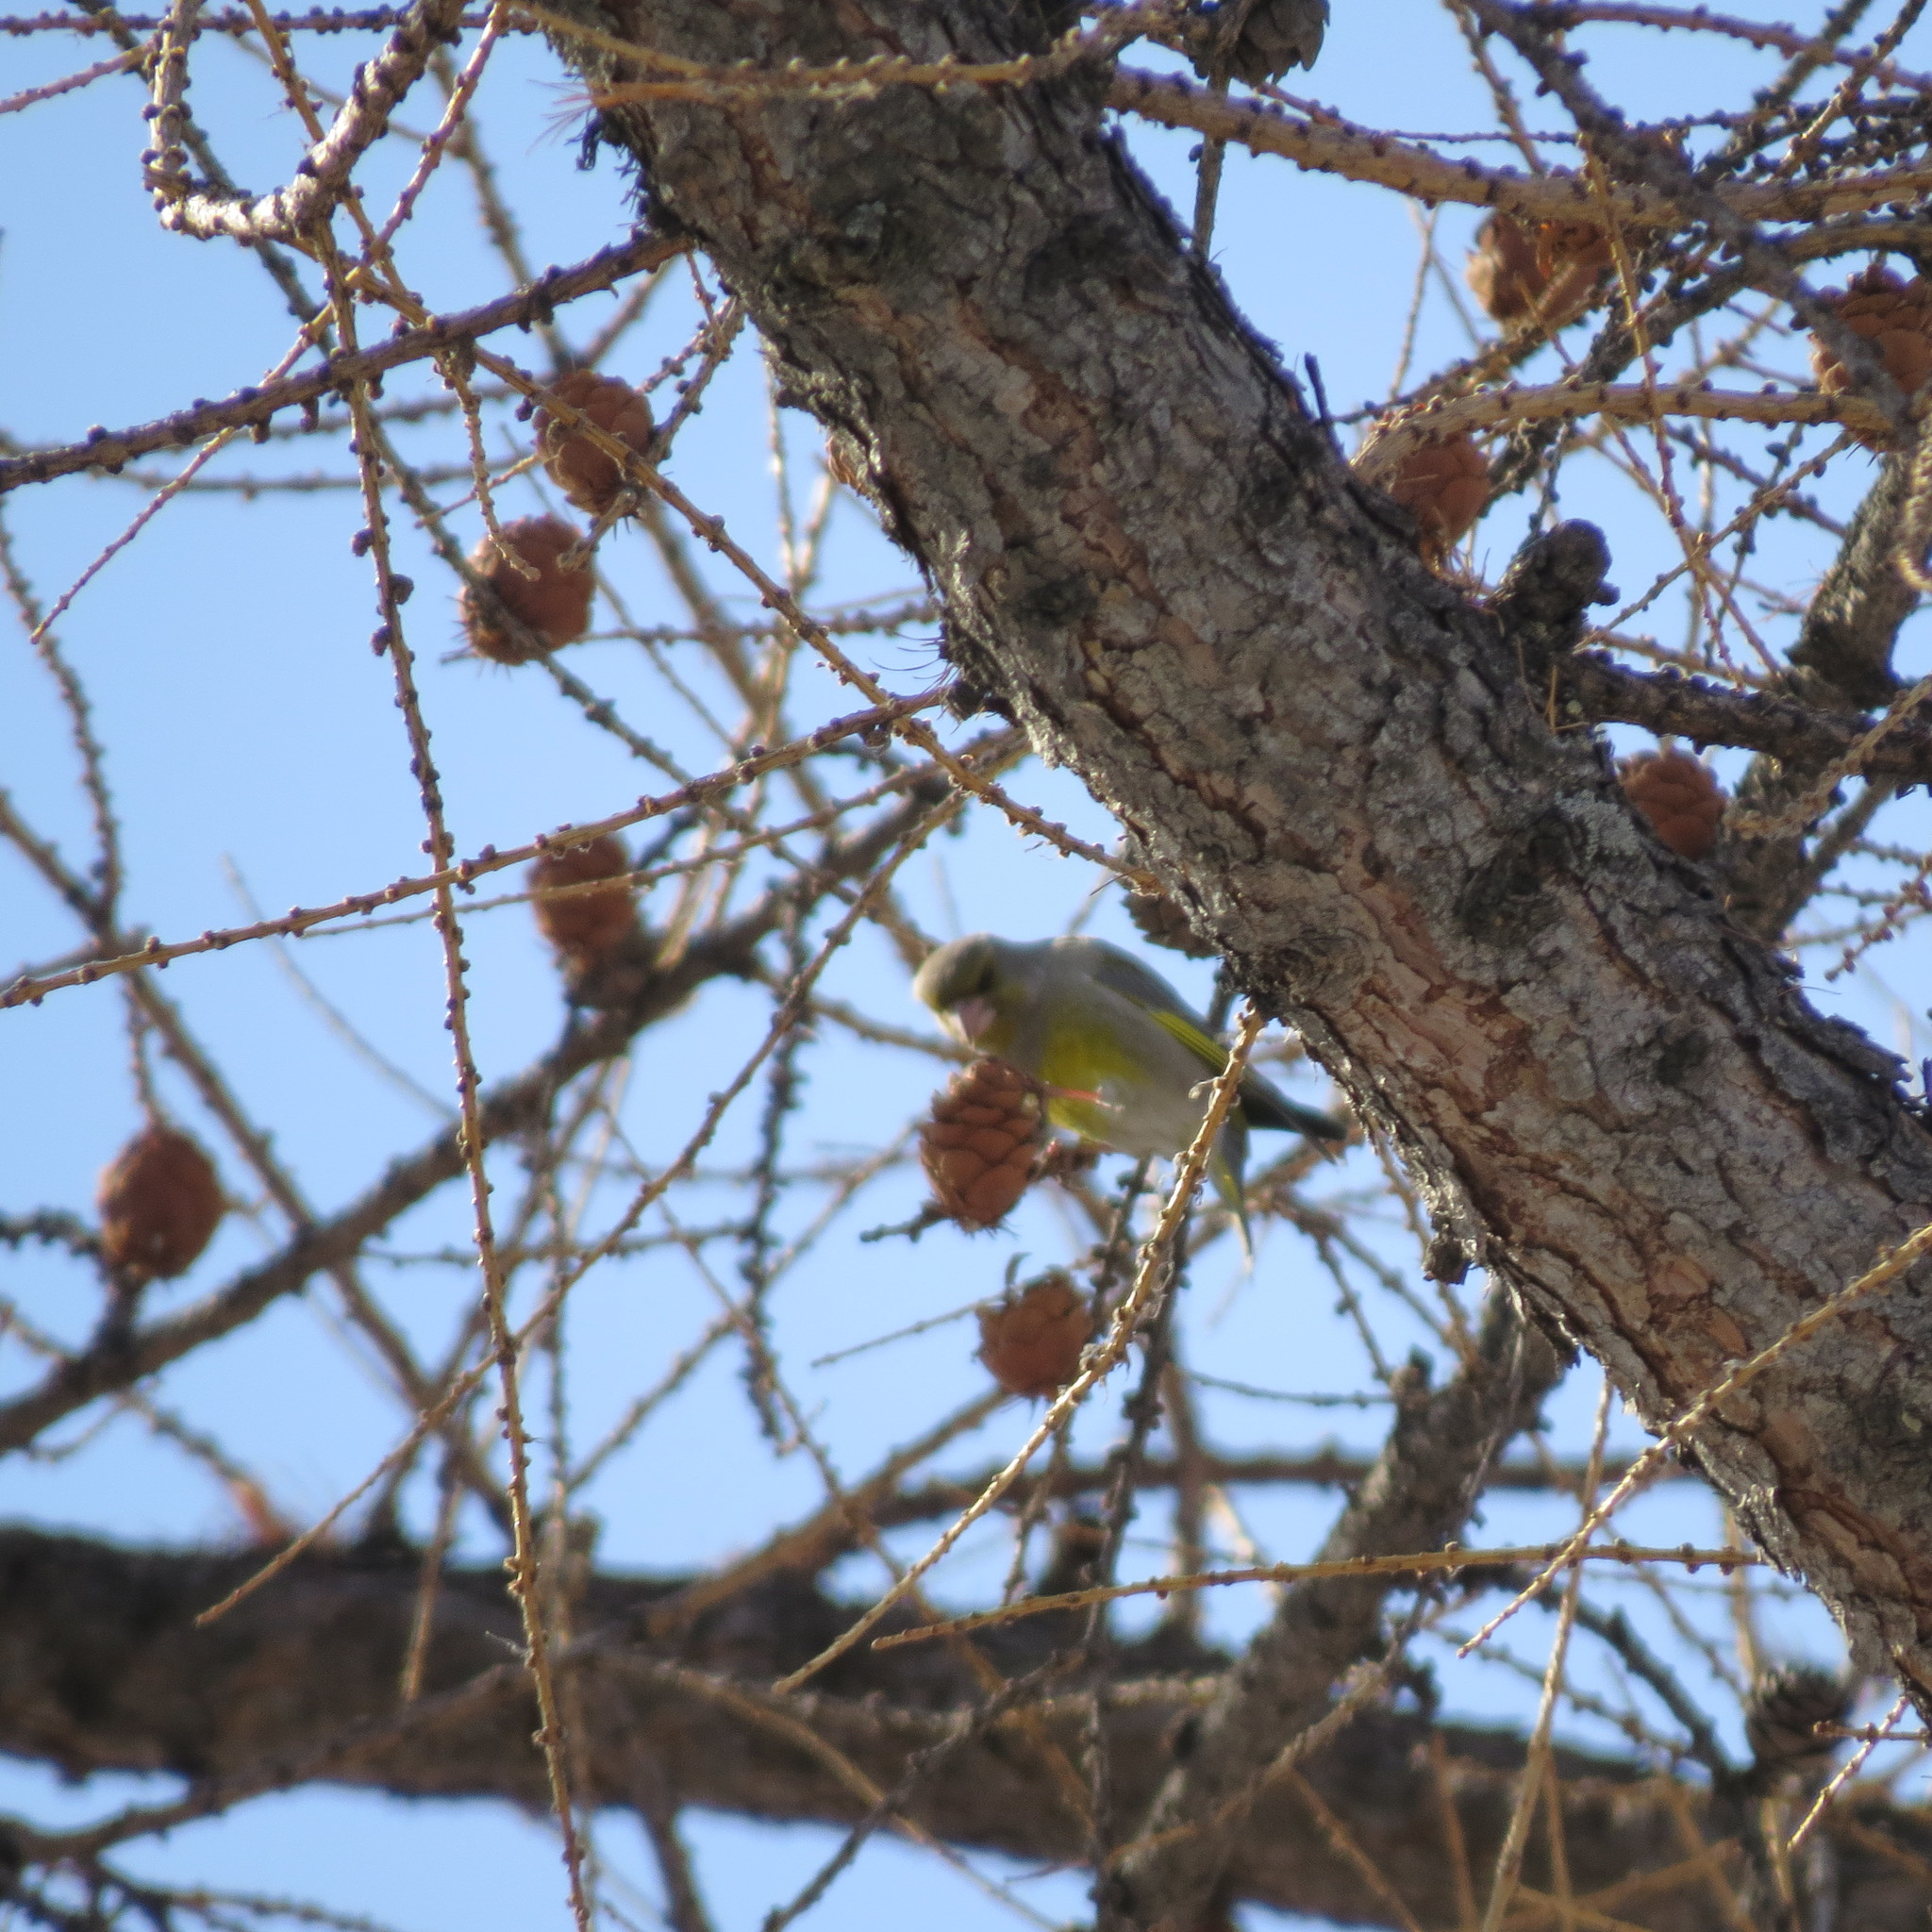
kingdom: Plantae
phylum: Tracheophyta
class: Liliopsida
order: Poales
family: Poaceae
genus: Chloris
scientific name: Chloris chloris
